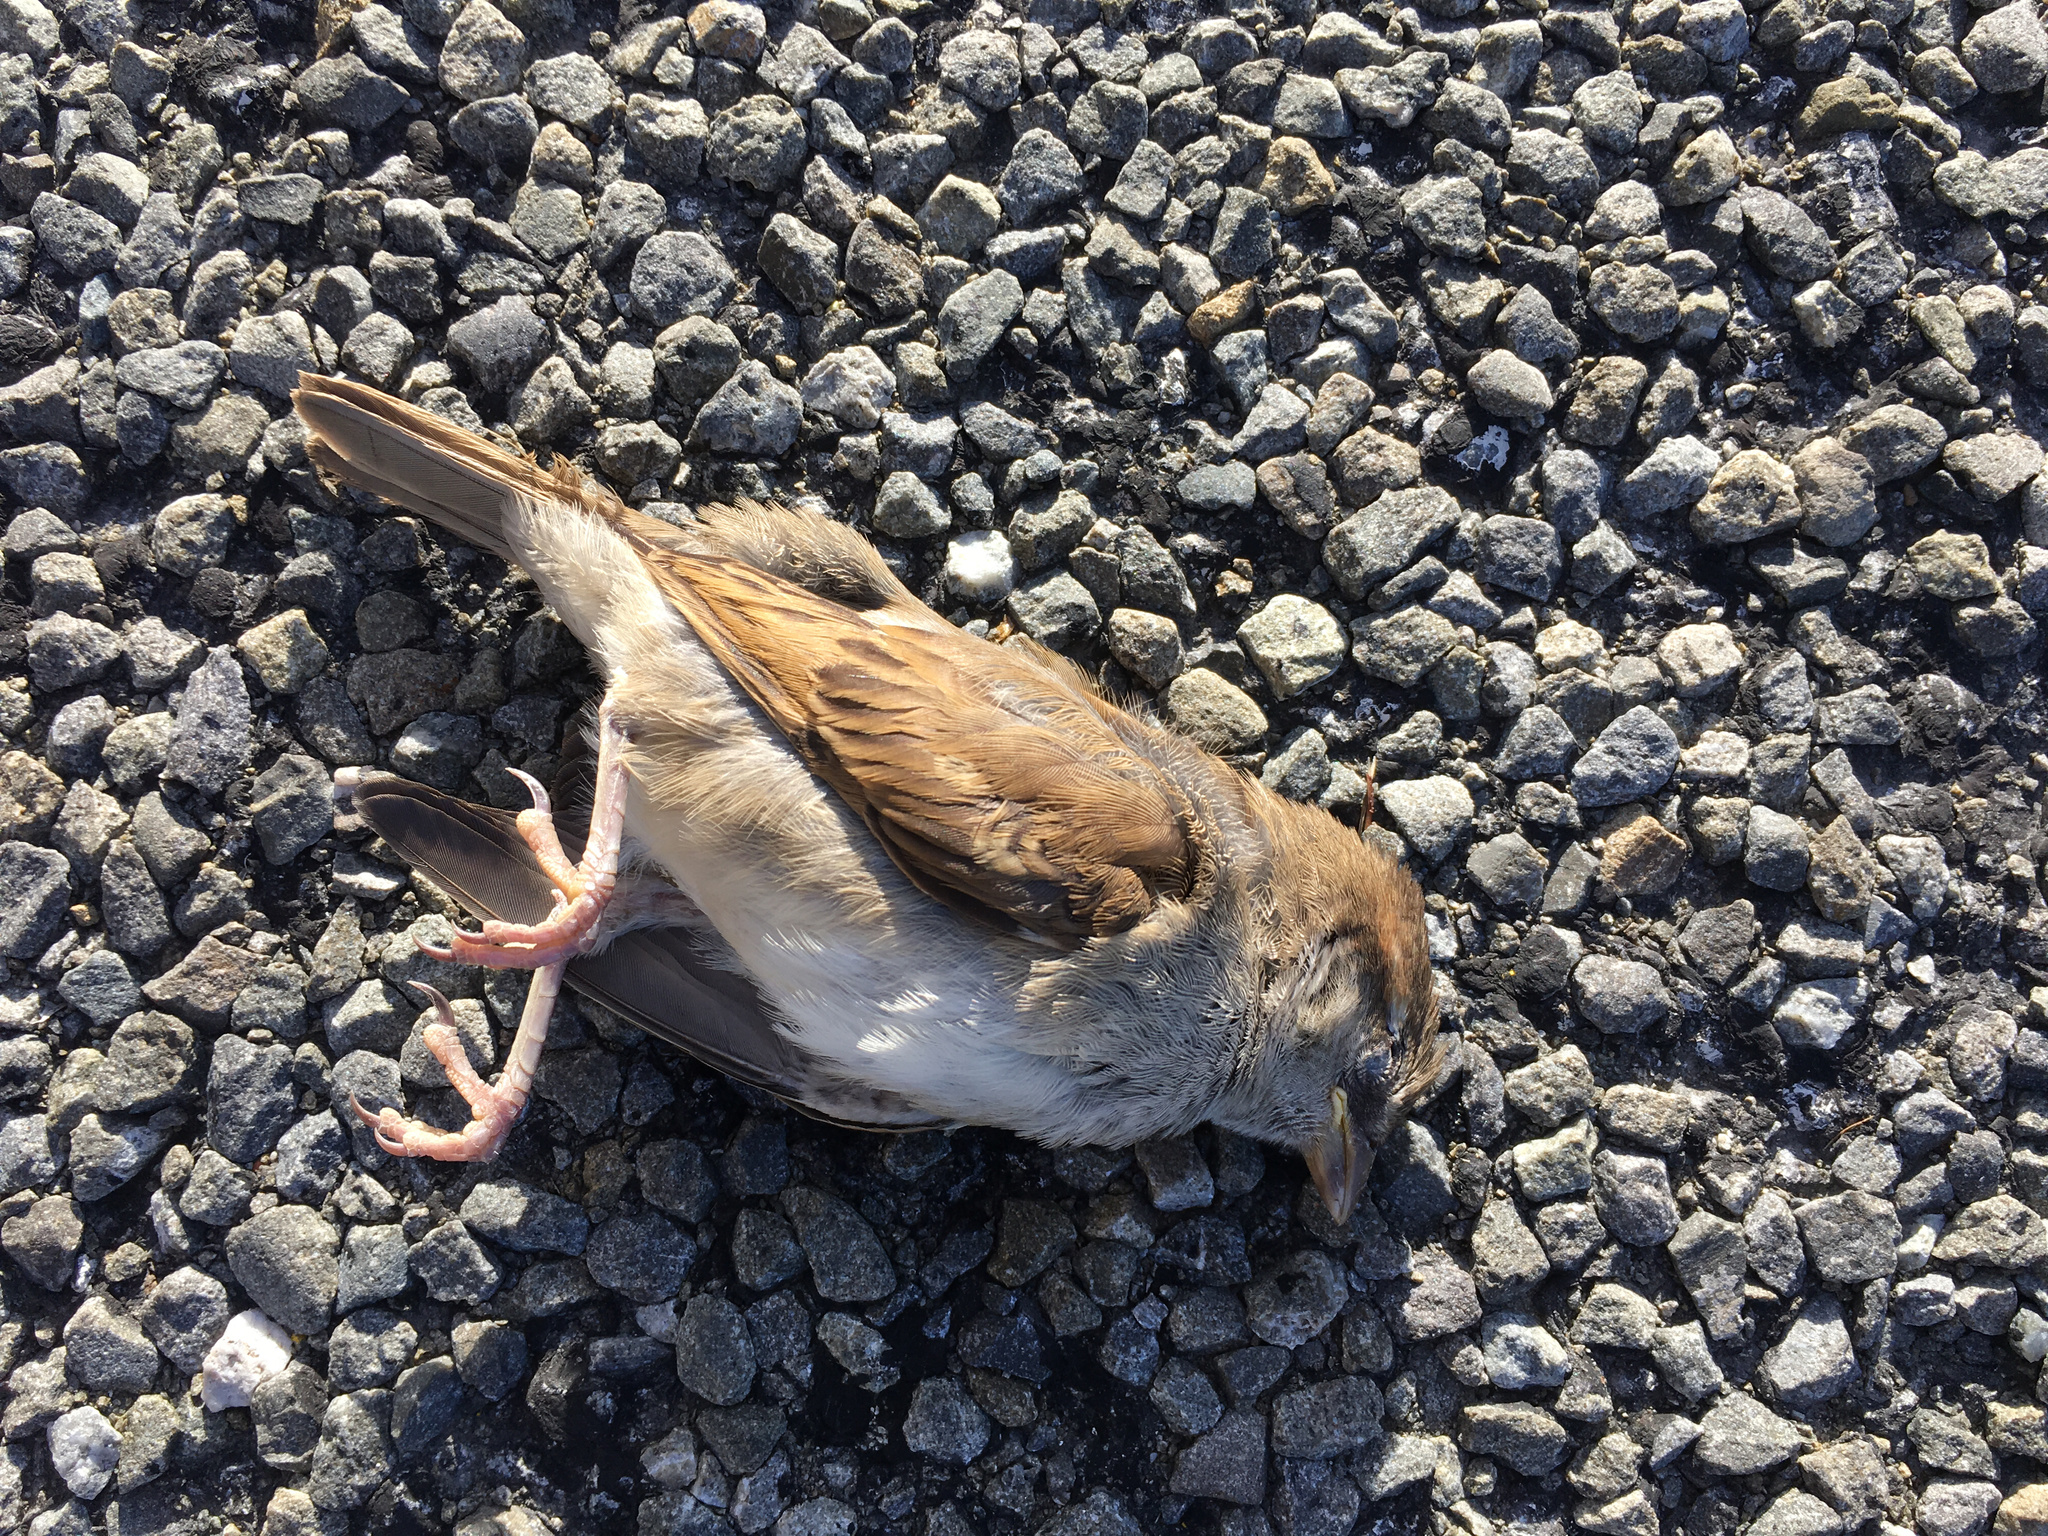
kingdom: Animalia
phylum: Chordata
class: Aves
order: Passeriformes
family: Passeridae
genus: Passer
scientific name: Passer domesticus
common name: House sparrow
